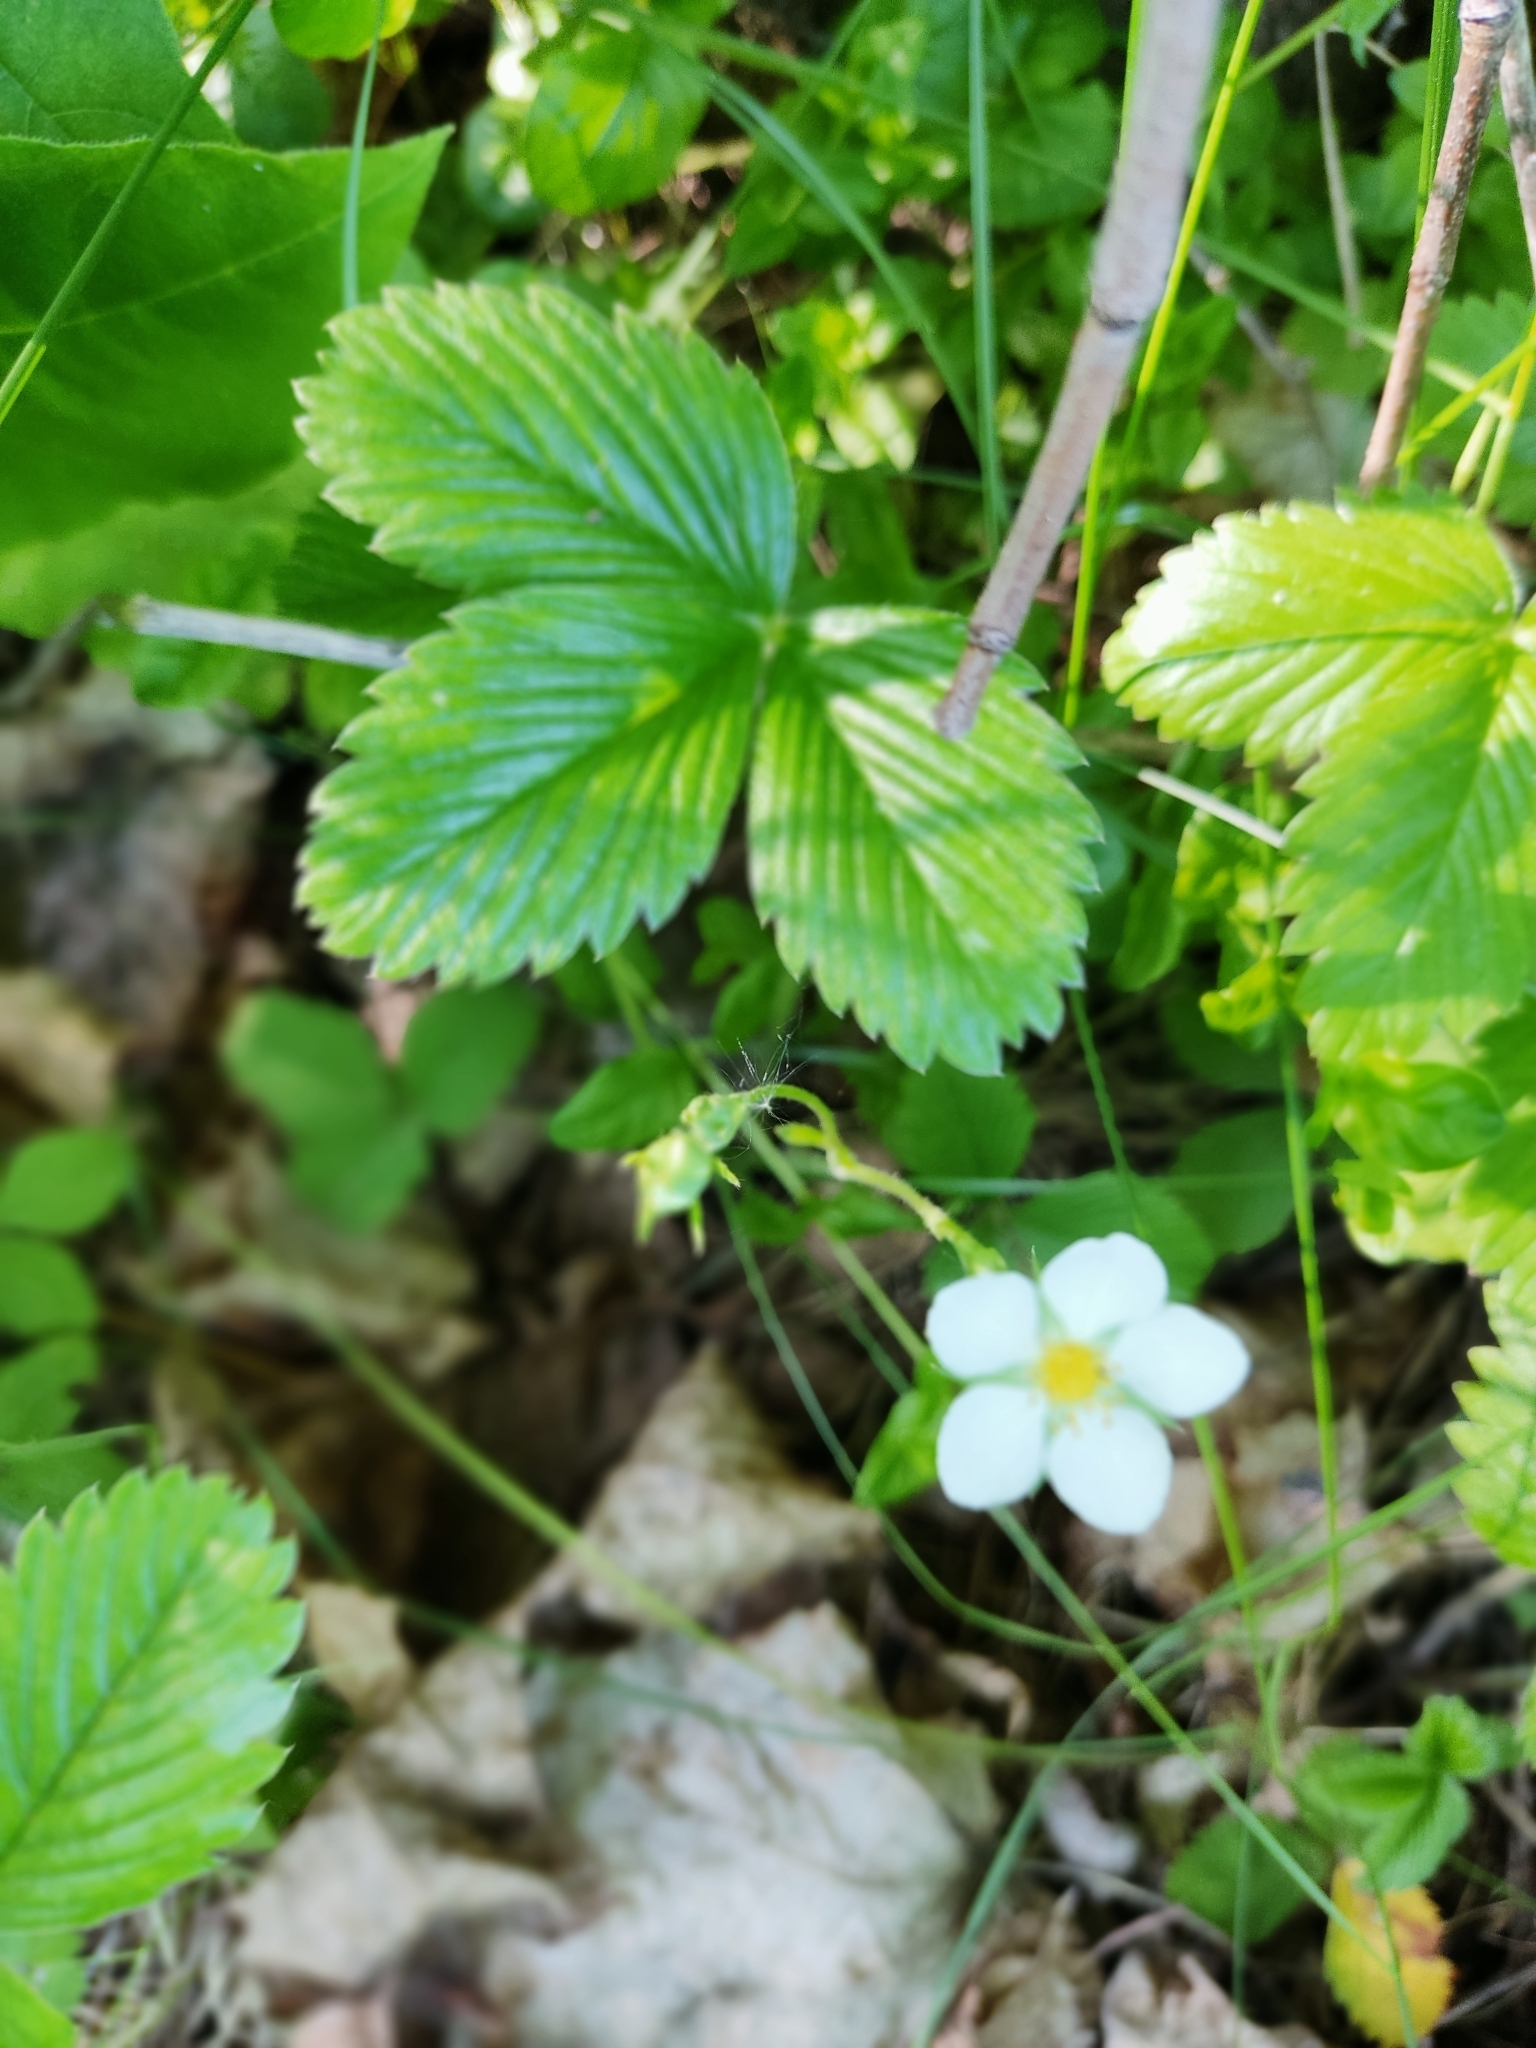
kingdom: Plantae
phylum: Tracheophyta
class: Magnoliopsida
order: Rosales
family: Rosaceae
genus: Fragaria
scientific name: Fragaria viridis
